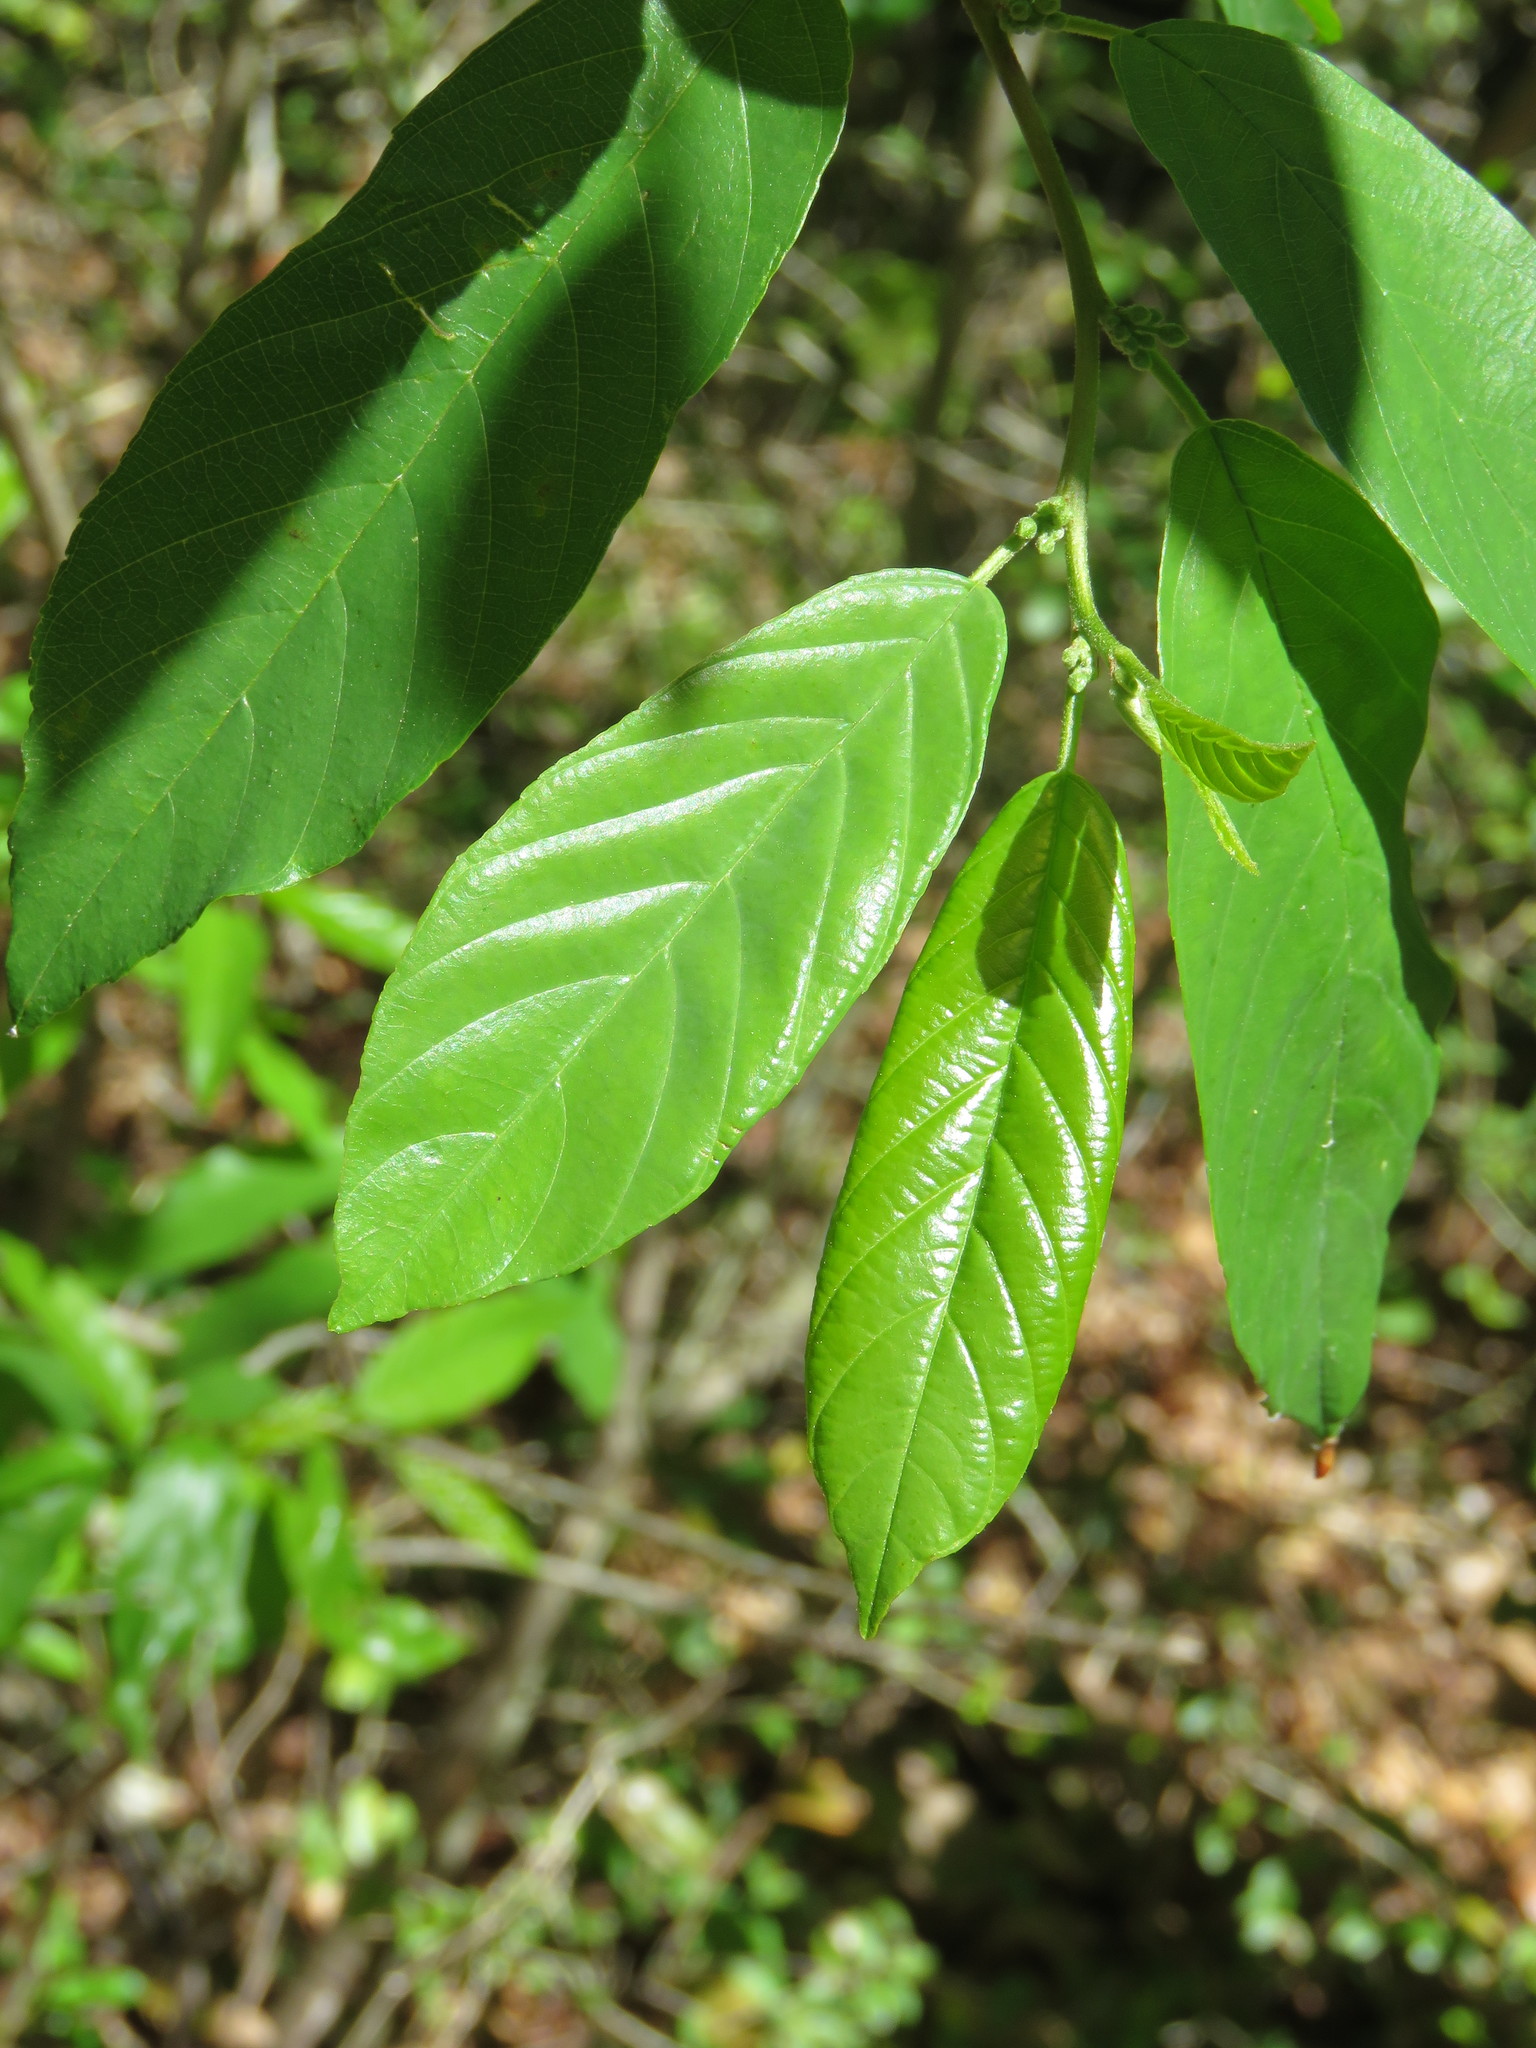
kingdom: Plantae
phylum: Tracheophyta
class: Magnoliopsida
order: Rosales
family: Rhamnaceae
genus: Frangula
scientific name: Frangula caroliniana
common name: Carolina buckthorn
